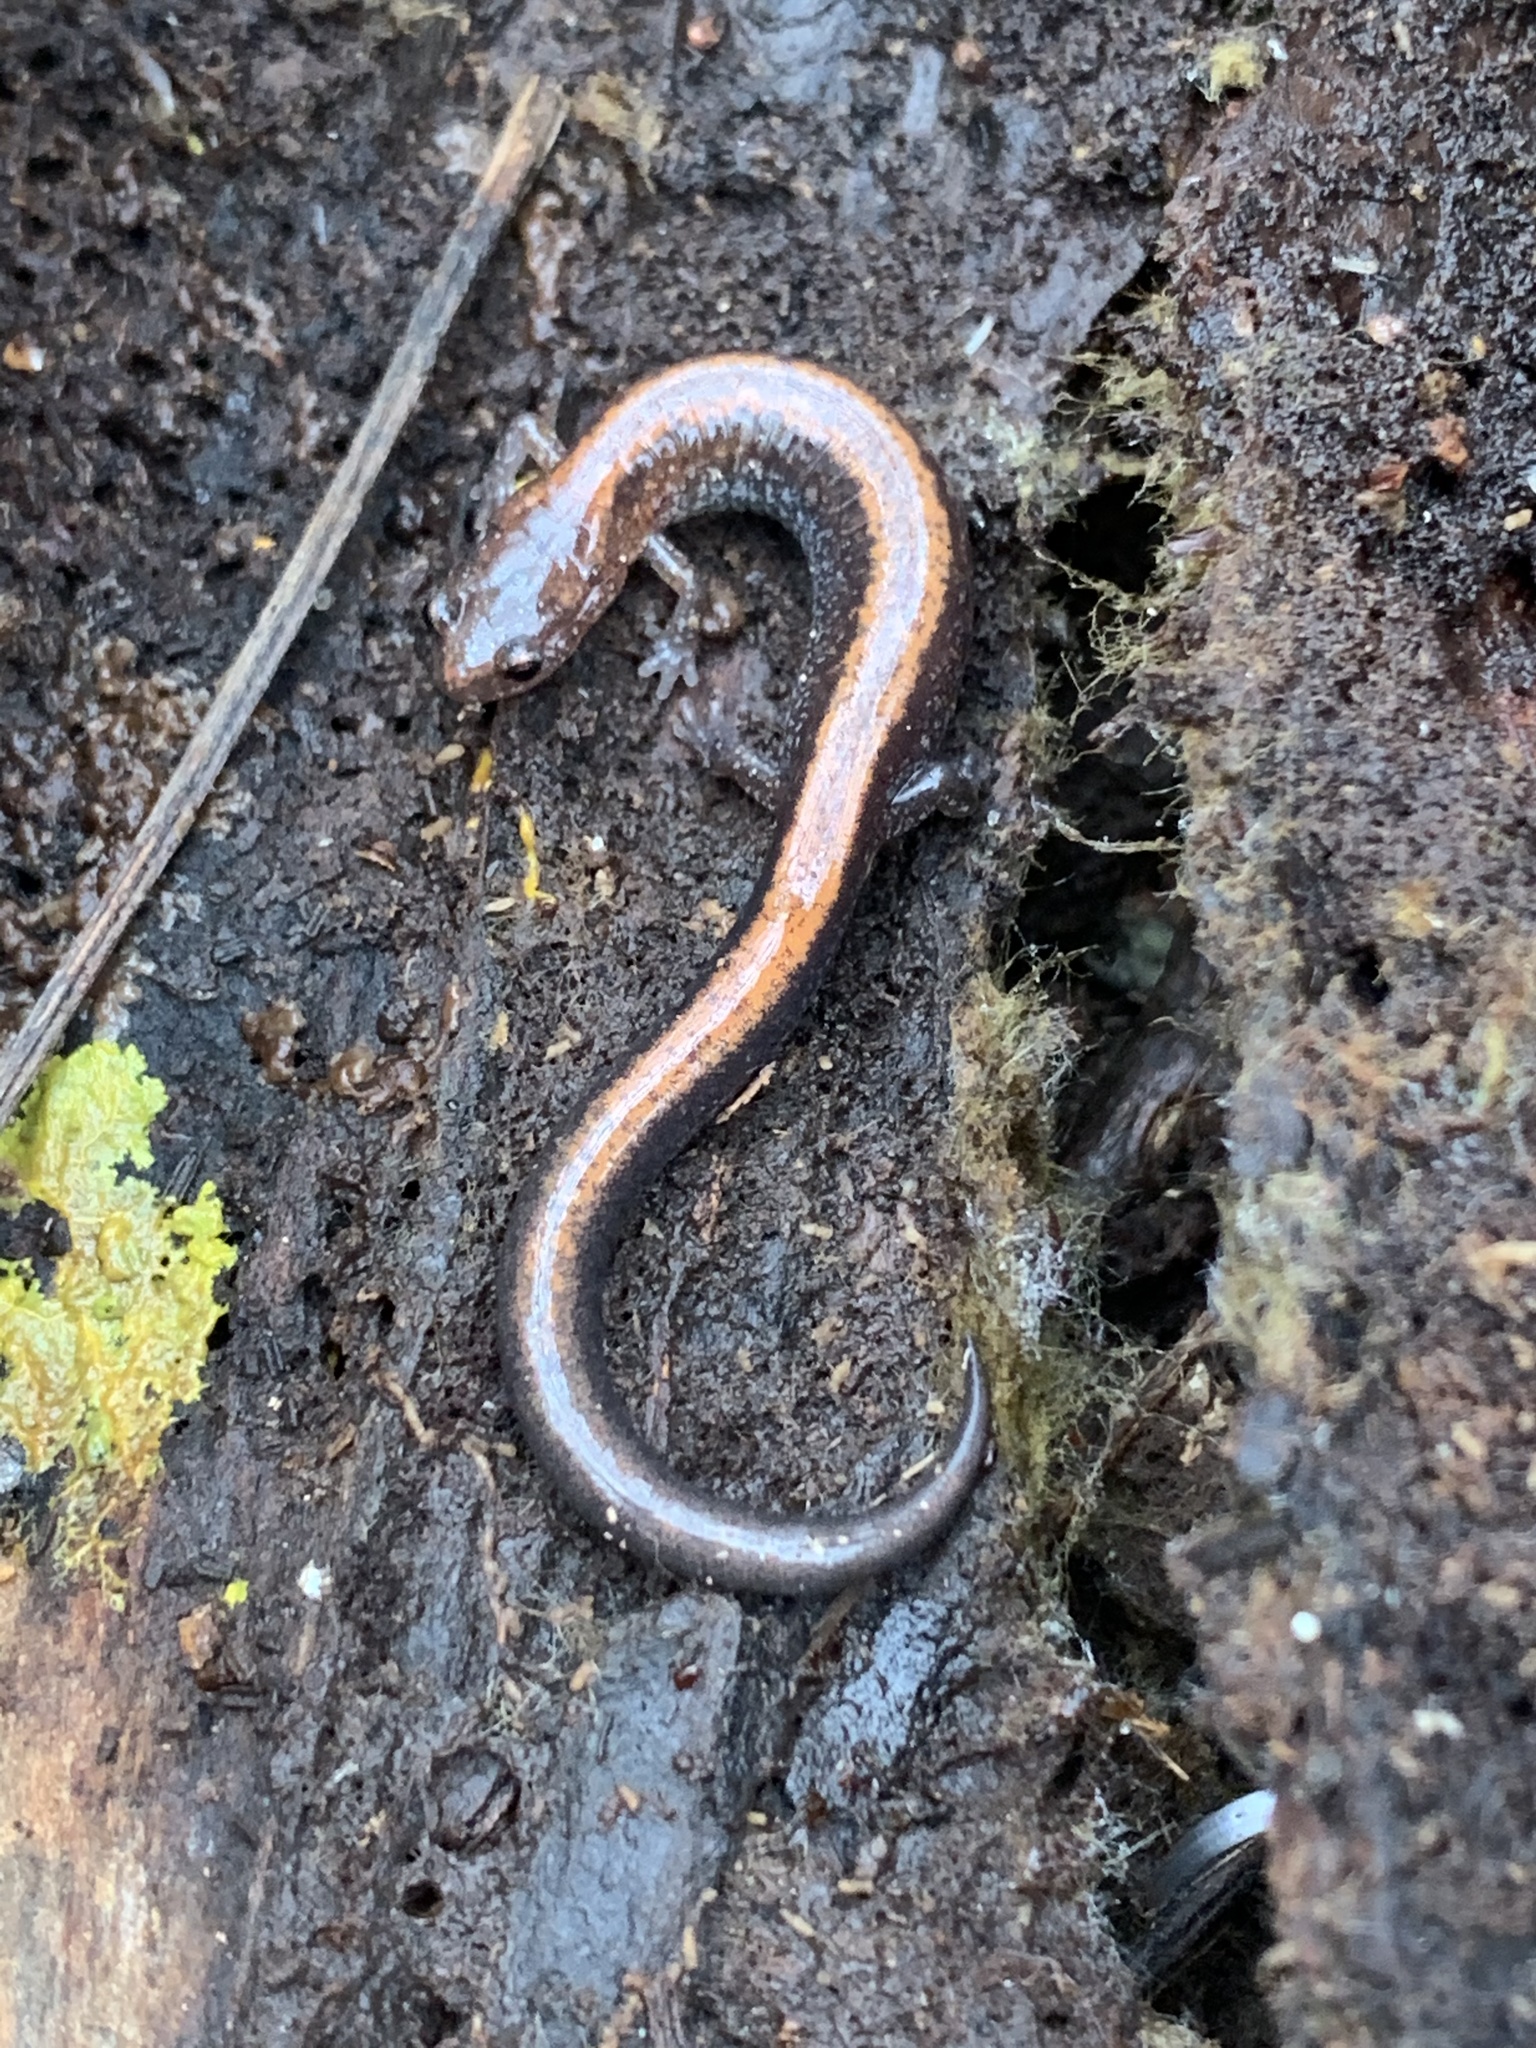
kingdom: Animalia
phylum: Chordata
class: Amphibia
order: Caudata
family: Plethodontidae
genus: Plethodon
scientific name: Plethodon cinereus
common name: Redback salamander
